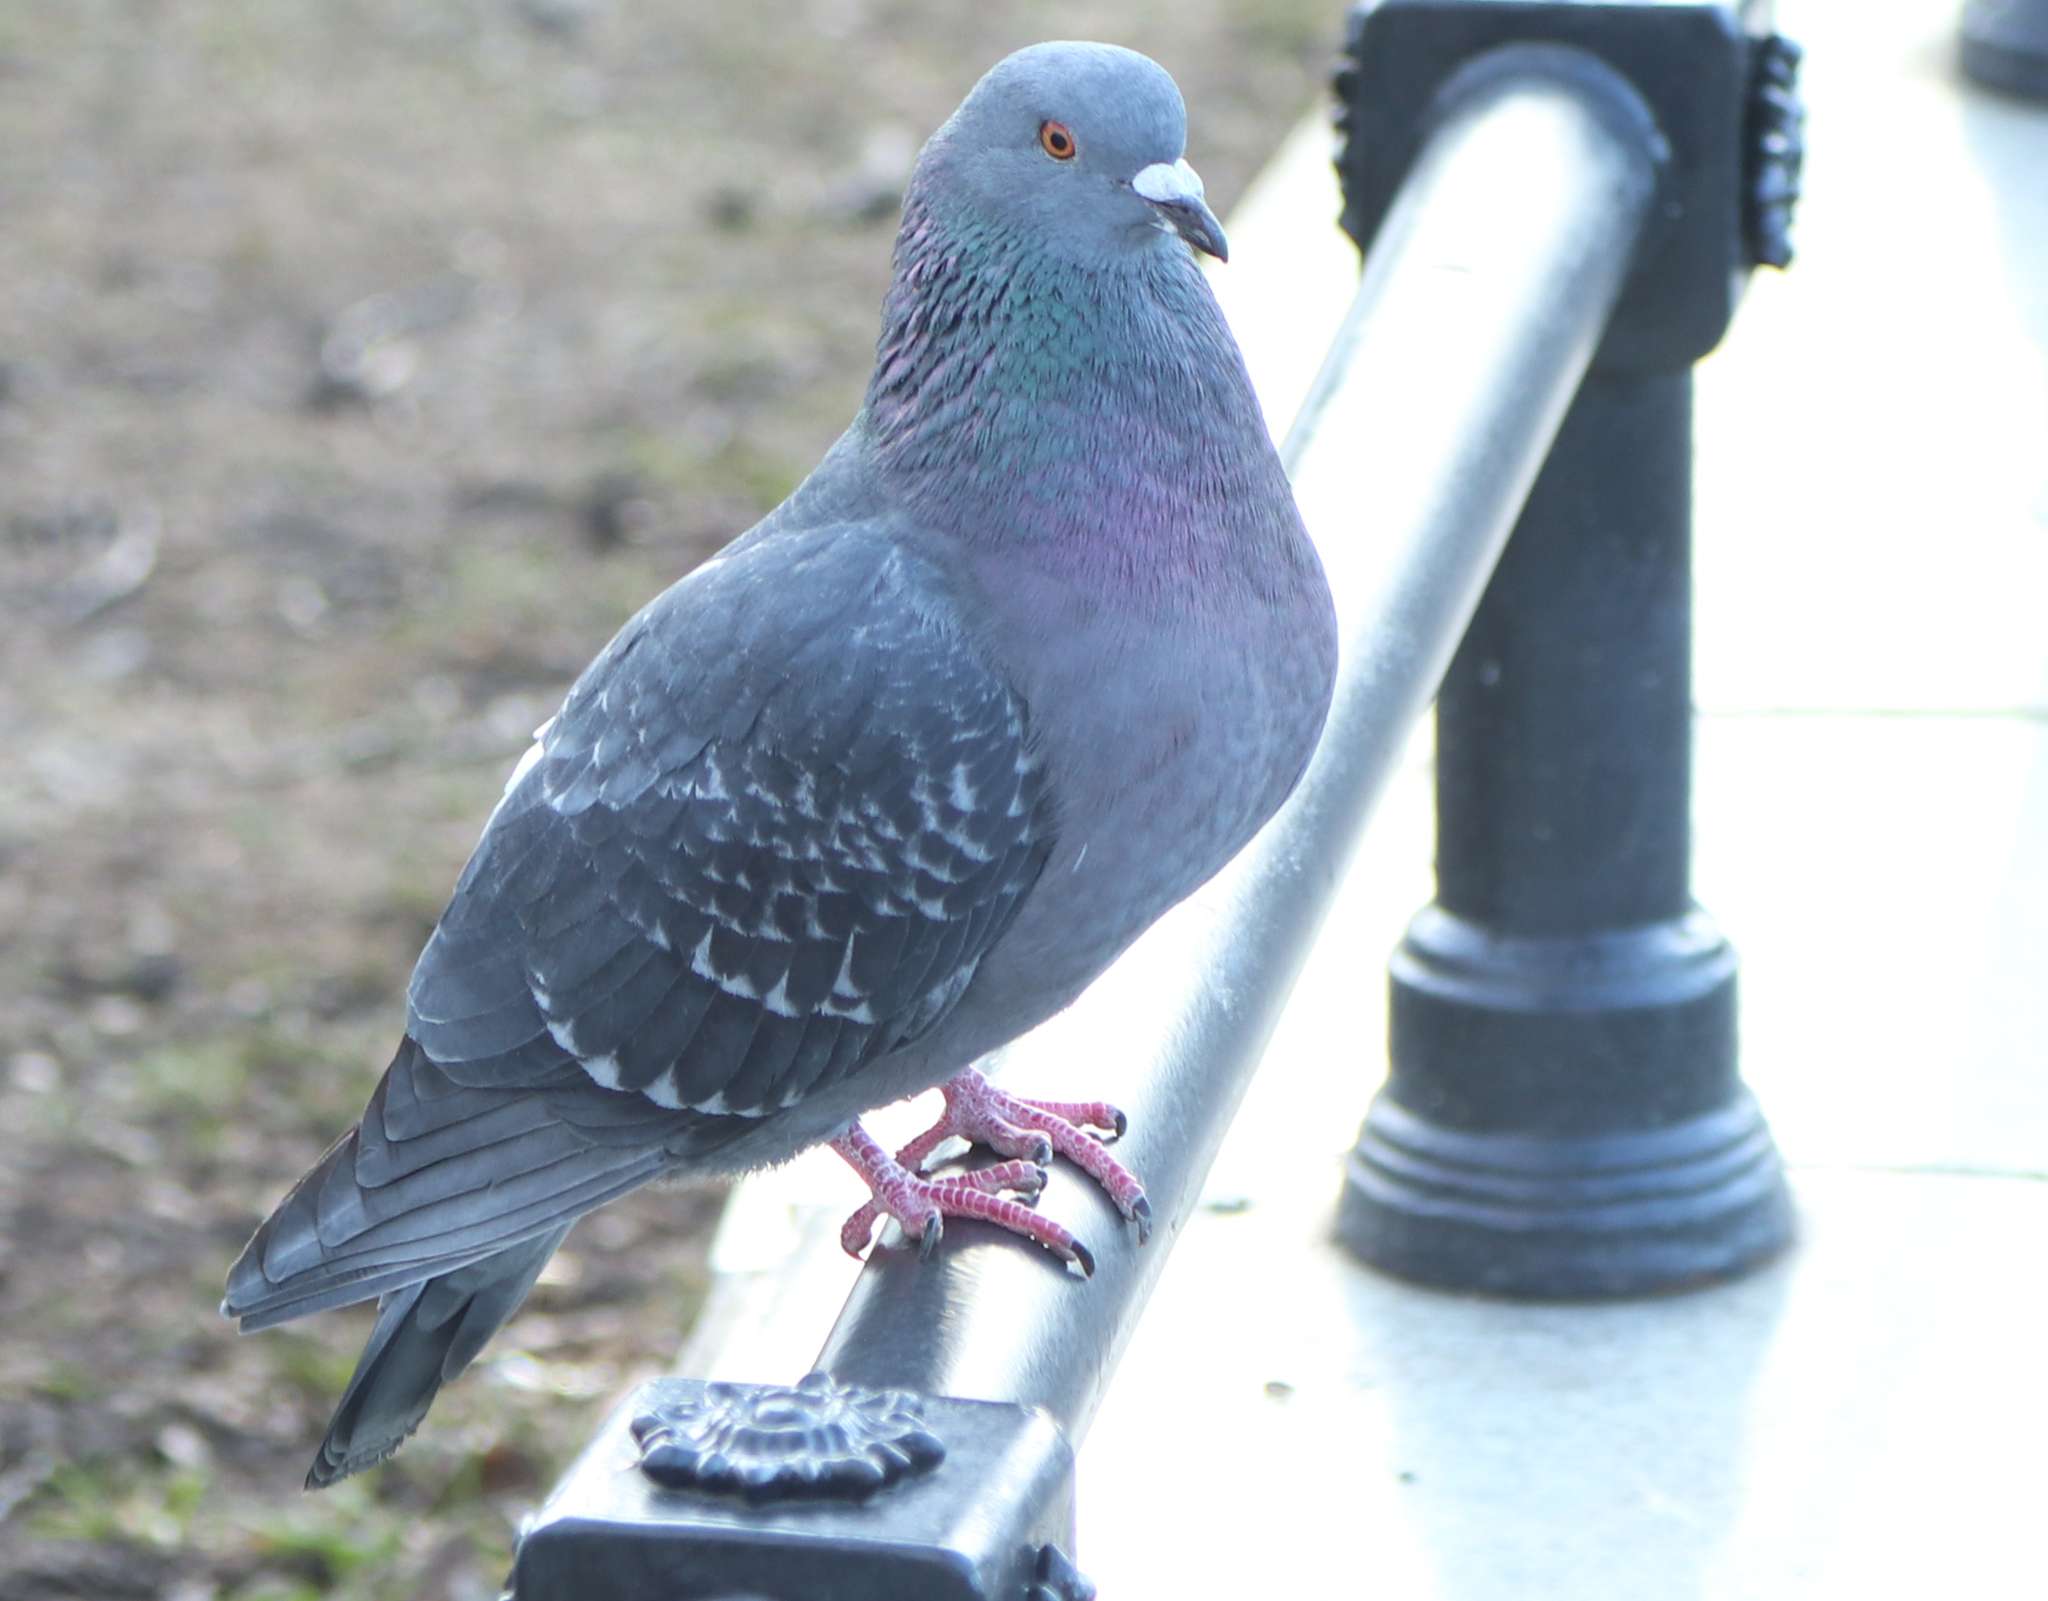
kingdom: Animalia
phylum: Chordata
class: Aves
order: Columbiformes
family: Columbidae
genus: Columba
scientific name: Columba livia
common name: Rock pigeon
